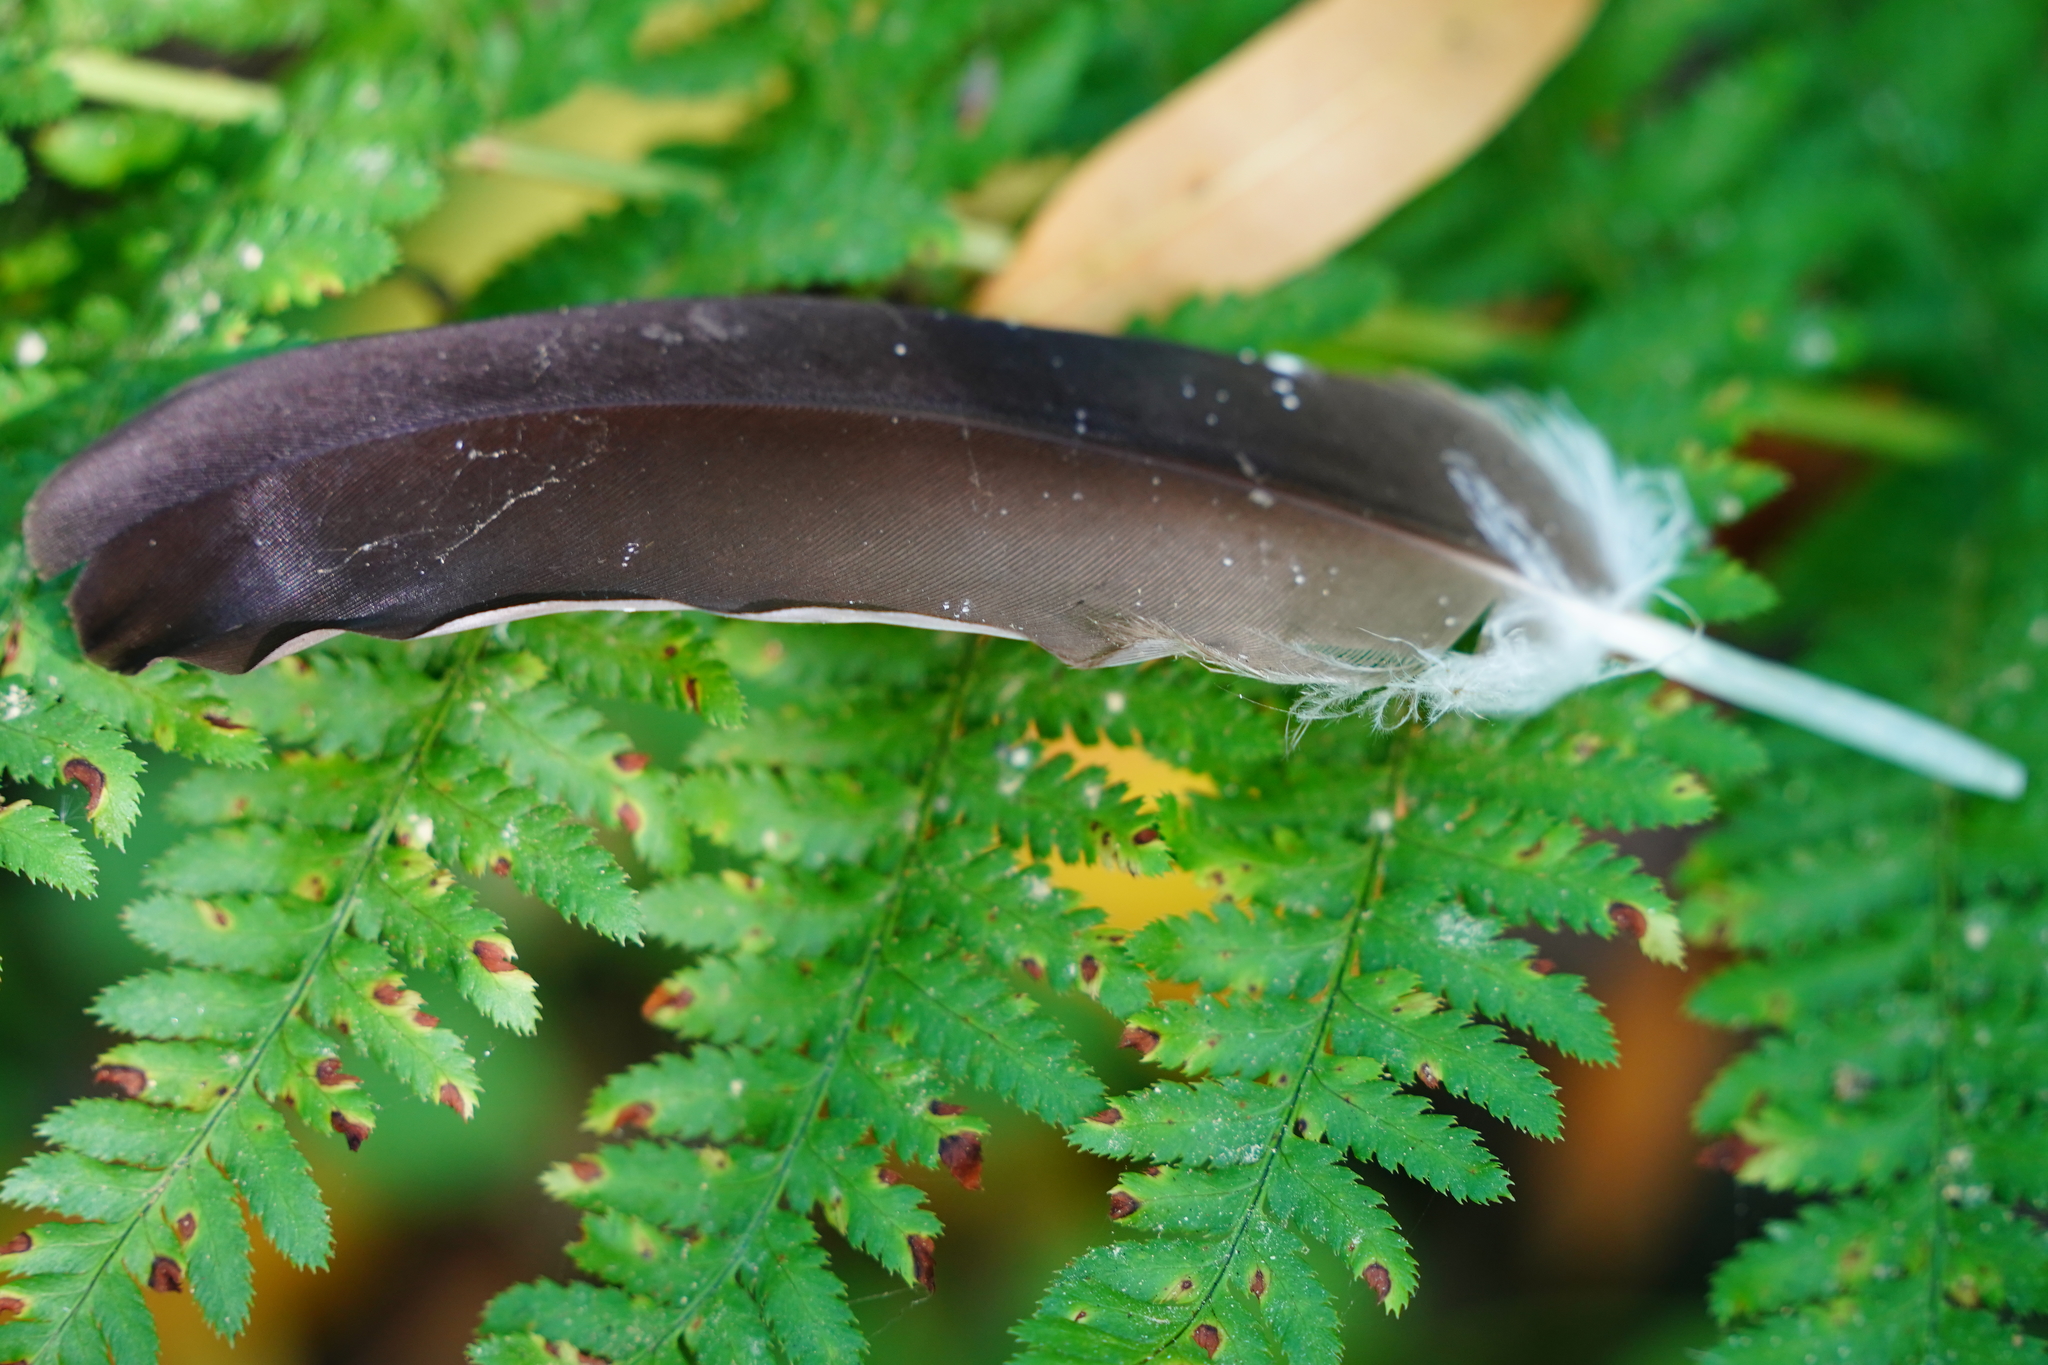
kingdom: Animalia
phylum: Chordata
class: Aves
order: Accipitriformes
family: Cathartidae
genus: Cathartes
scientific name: Cathartes aura
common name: Turkey vulture
